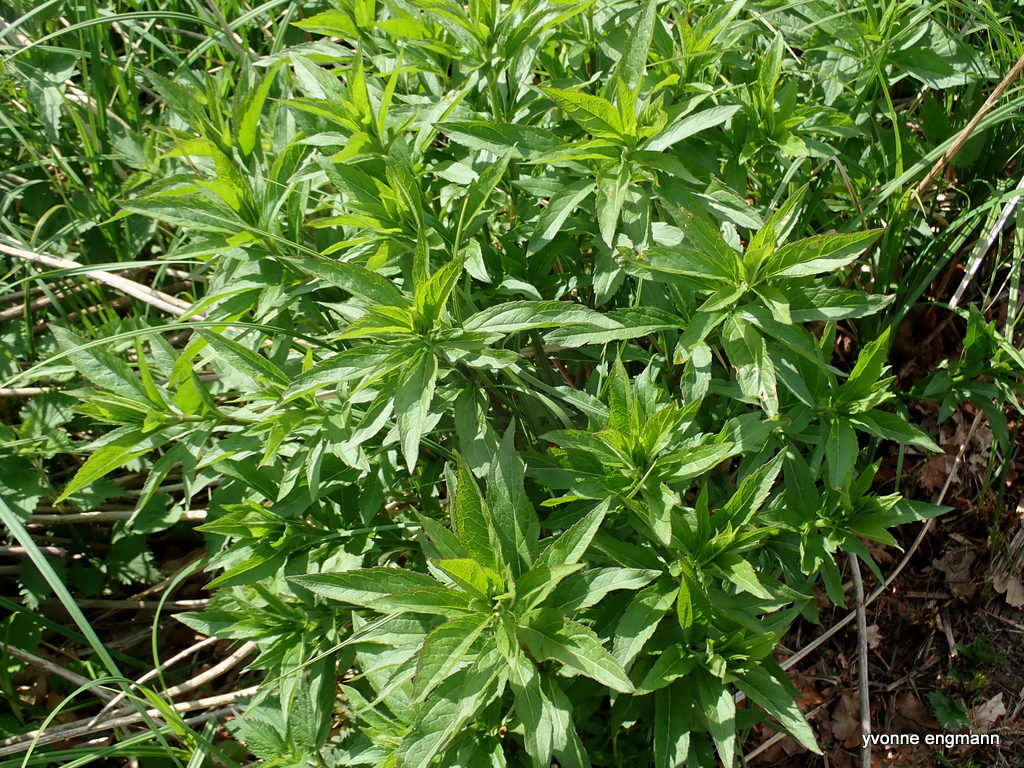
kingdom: Plantae
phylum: Tracheophyta
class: Magnoliopsida
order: Asterales
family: Asteraceae
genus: Eupatorium
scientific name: Eupatorium cannabinum
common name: Hemp-agrimony
